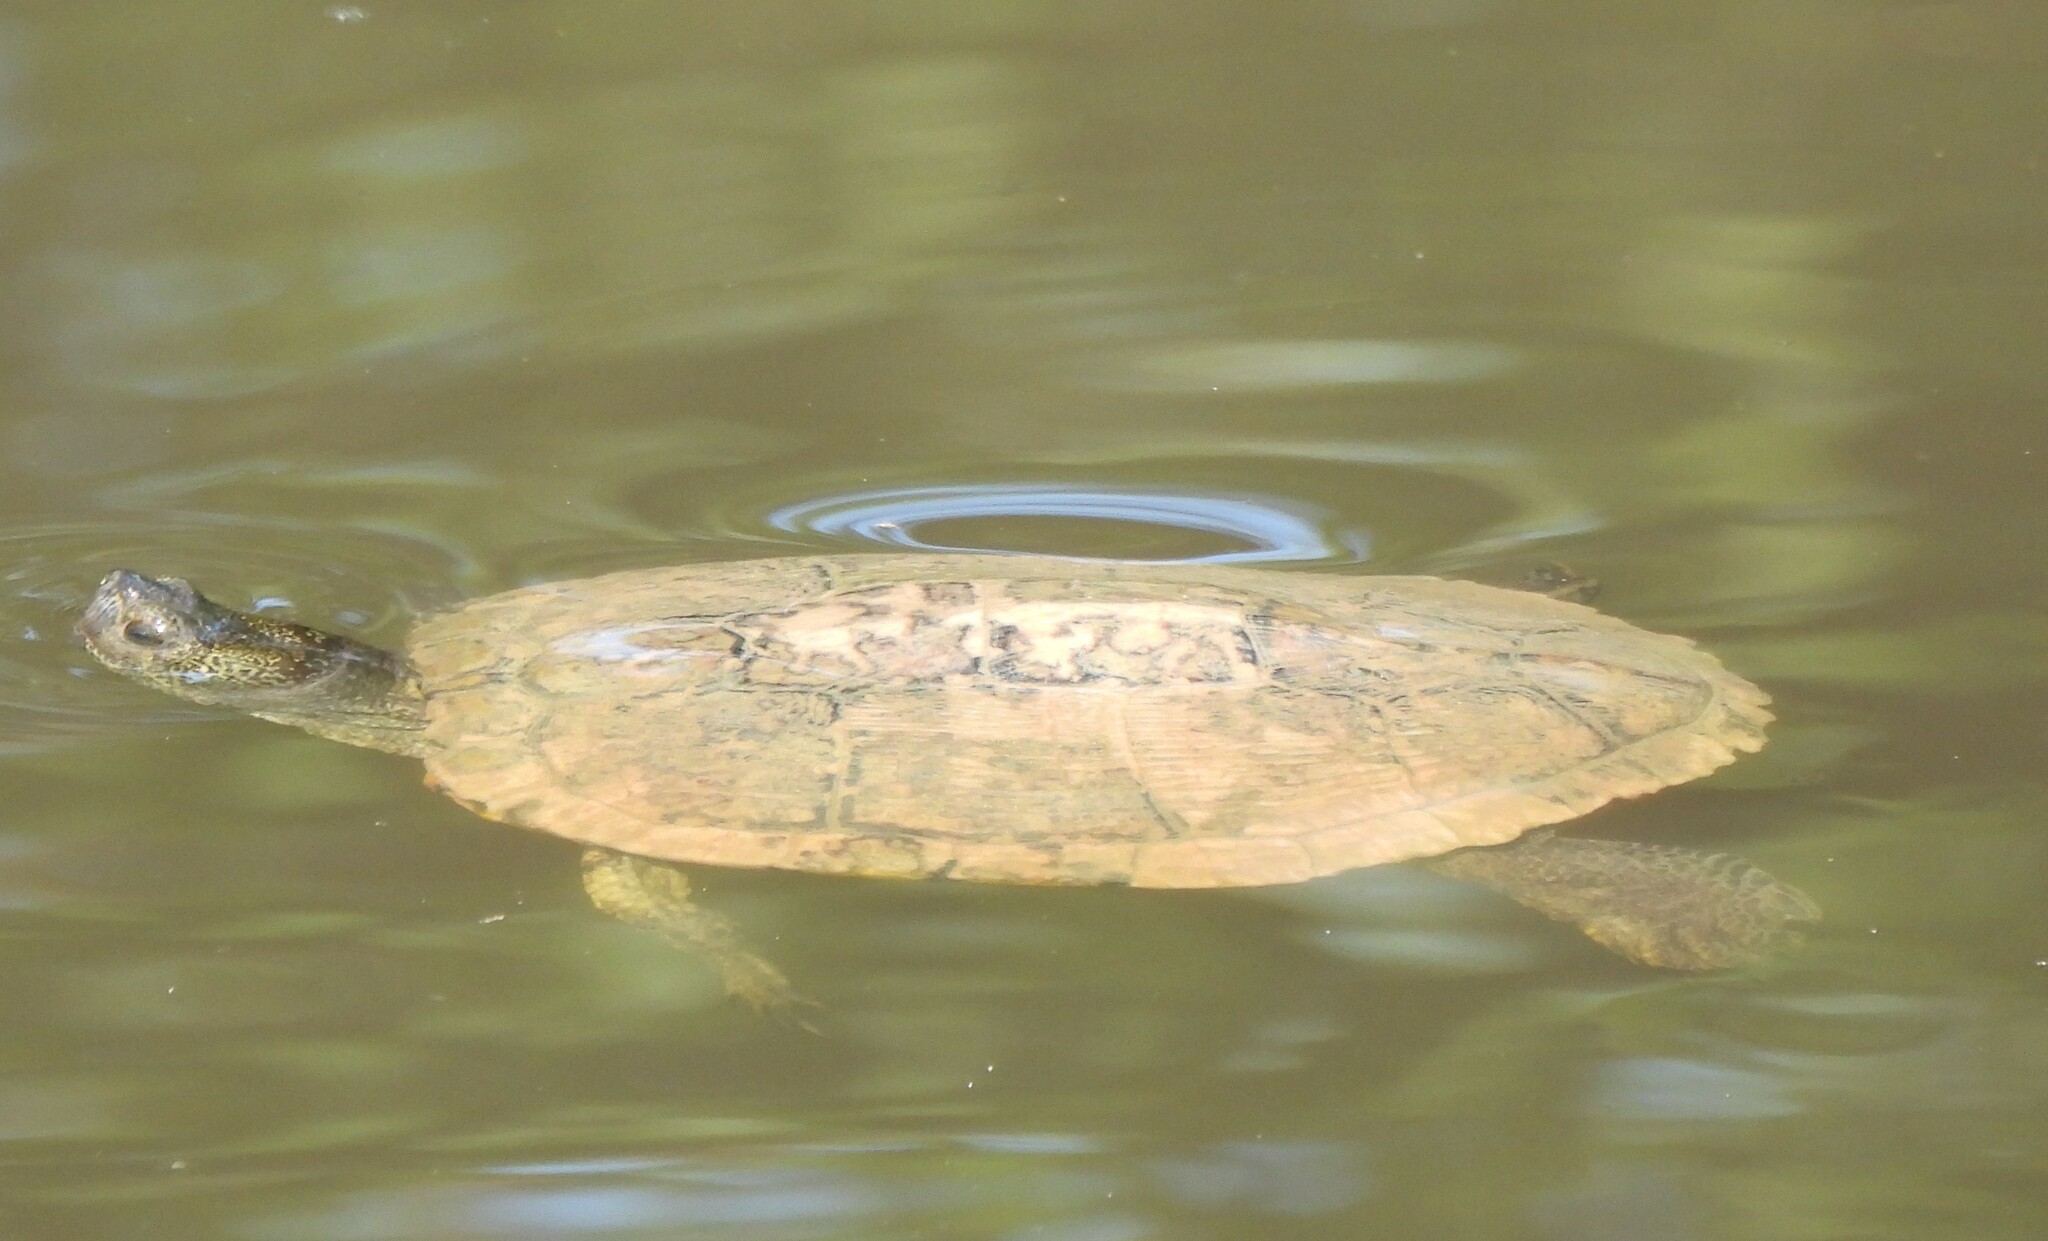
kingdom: Animalia
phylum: Chordata
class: Testudines
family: Emydidae
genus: Trachemys
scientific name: Trachemys scripta
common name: Slider
